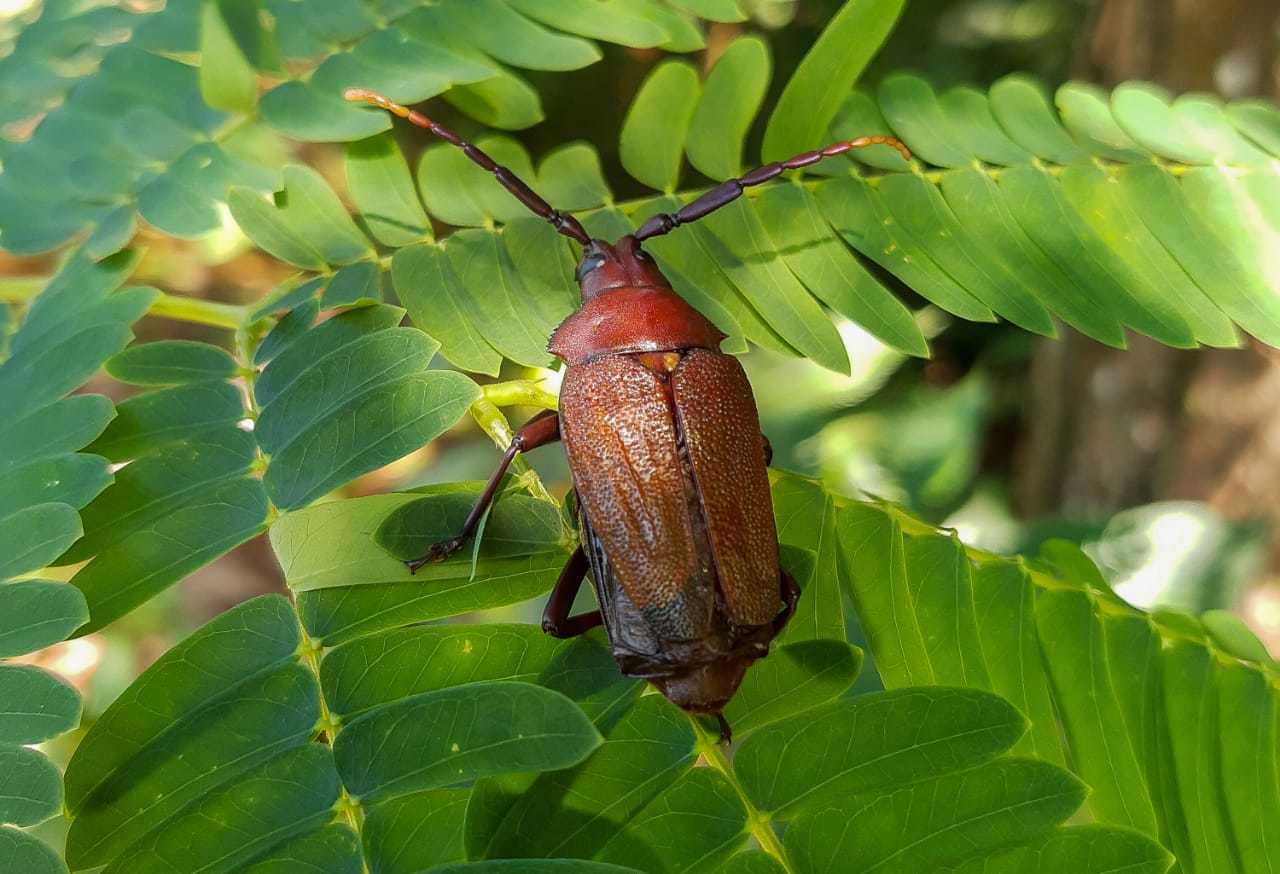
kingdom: Animalia
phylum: Arthropoda
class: Insecta
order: Coleoptera
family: Cerambycidae
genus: Praemallaspis
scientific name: Praemallaspis leucaspis
